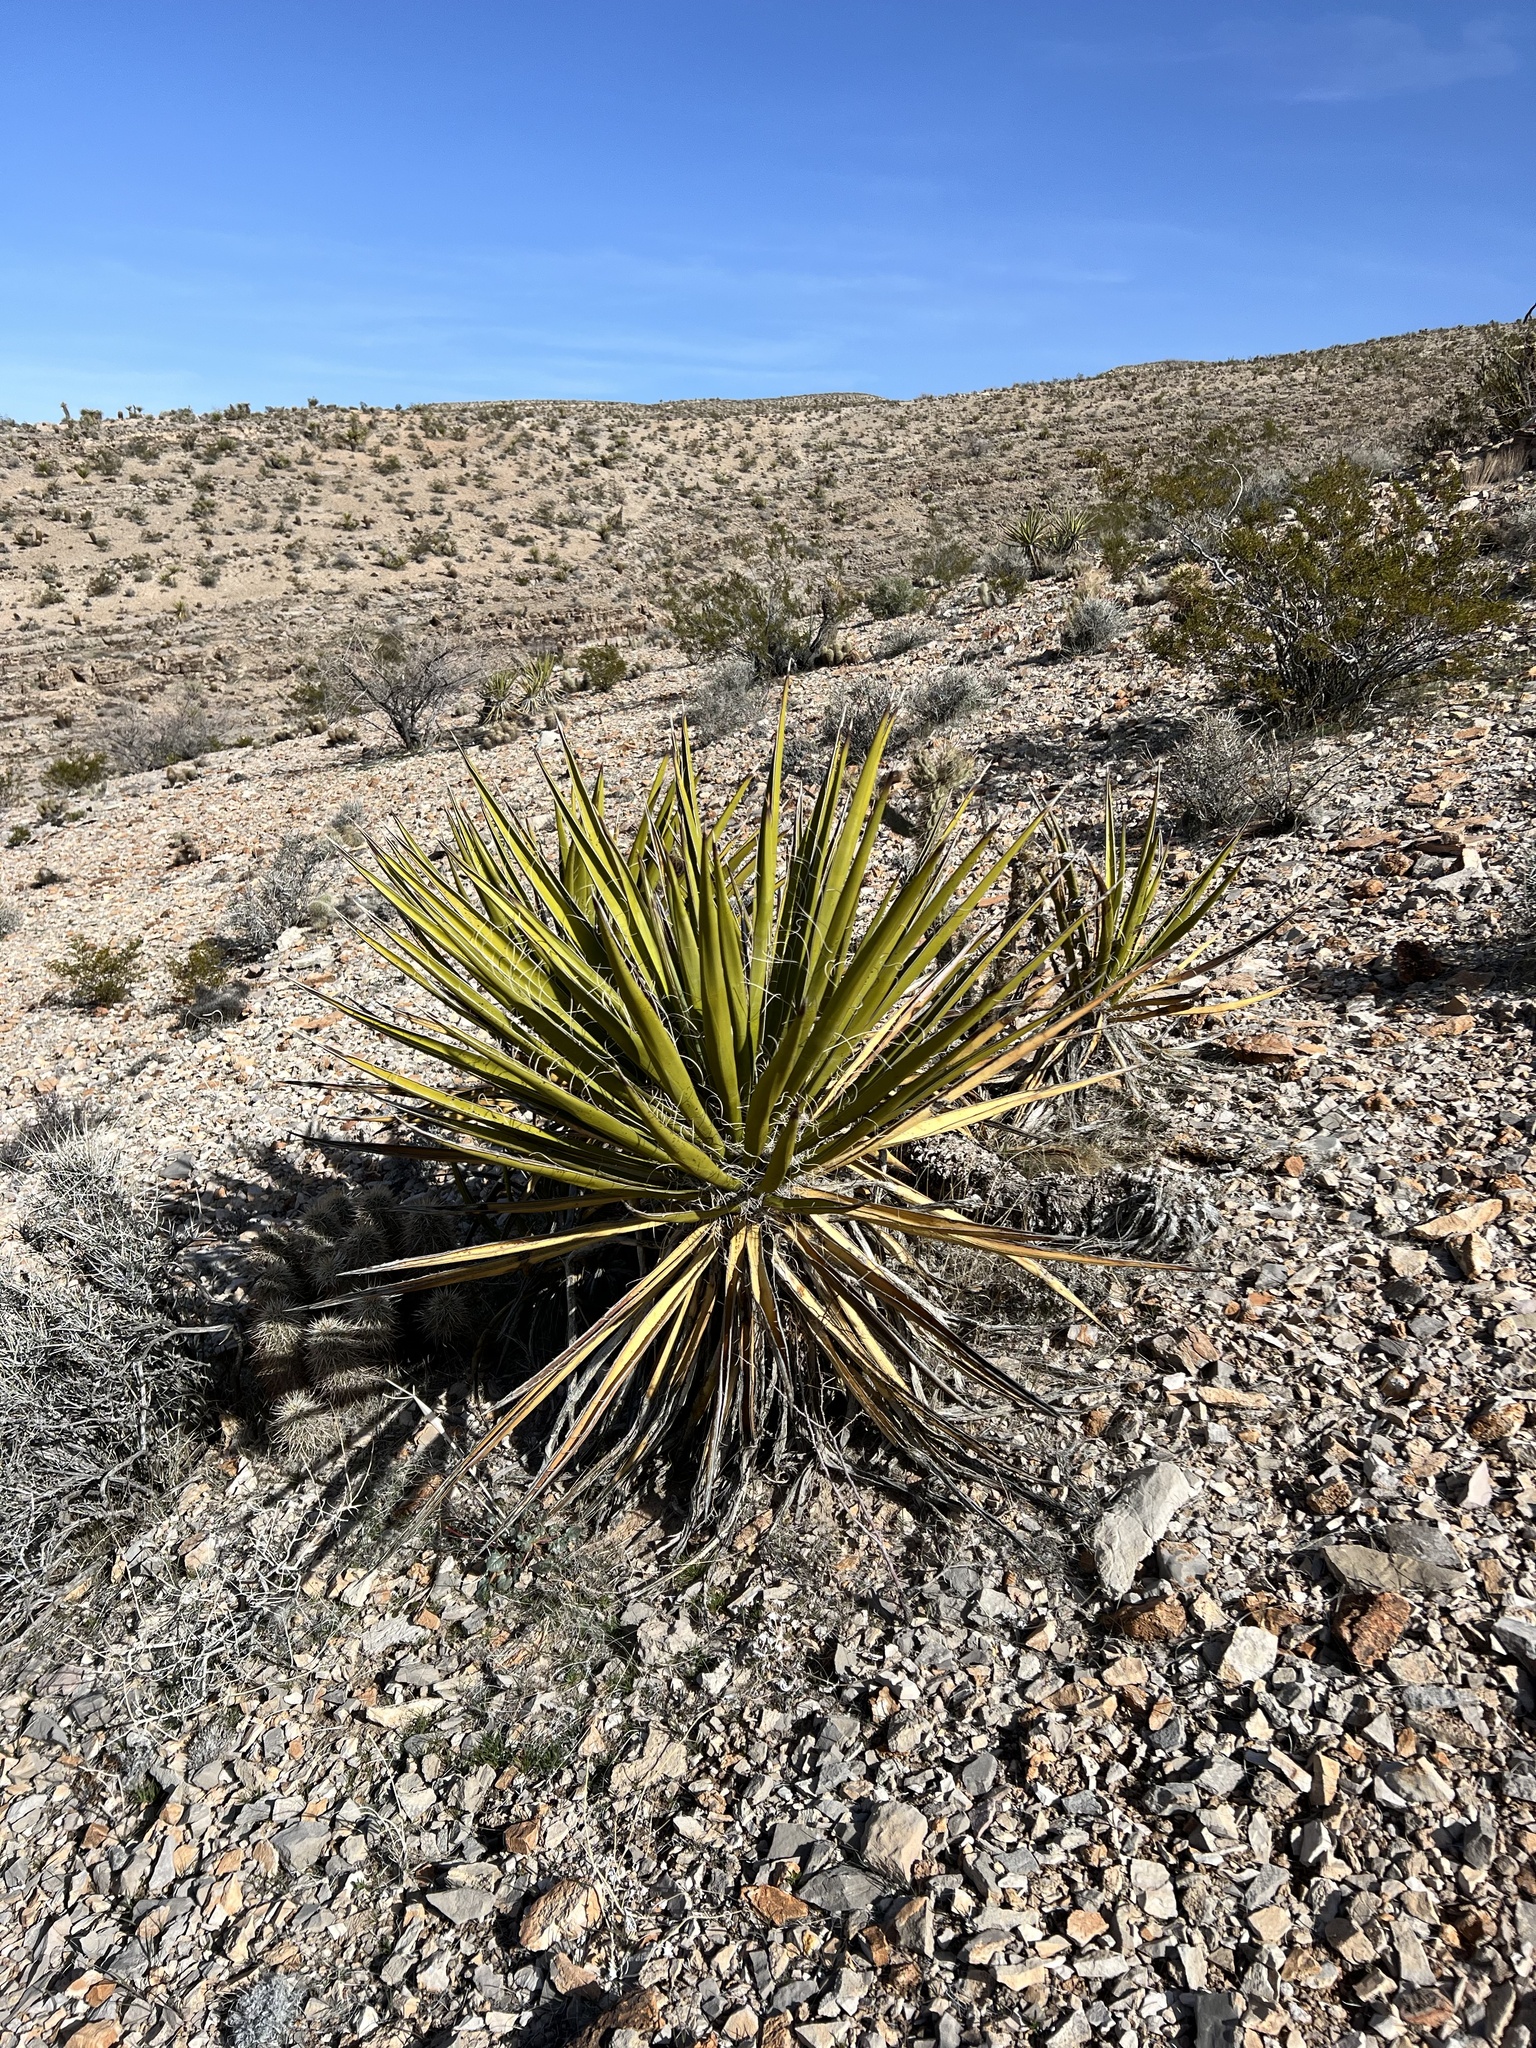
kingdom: Plantae
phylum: Tracheophyta
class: Liliopsida
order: Asparagales
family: Asparagaceae
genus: Yucca
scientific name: Yucca schidigera
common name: Mojave yucca
